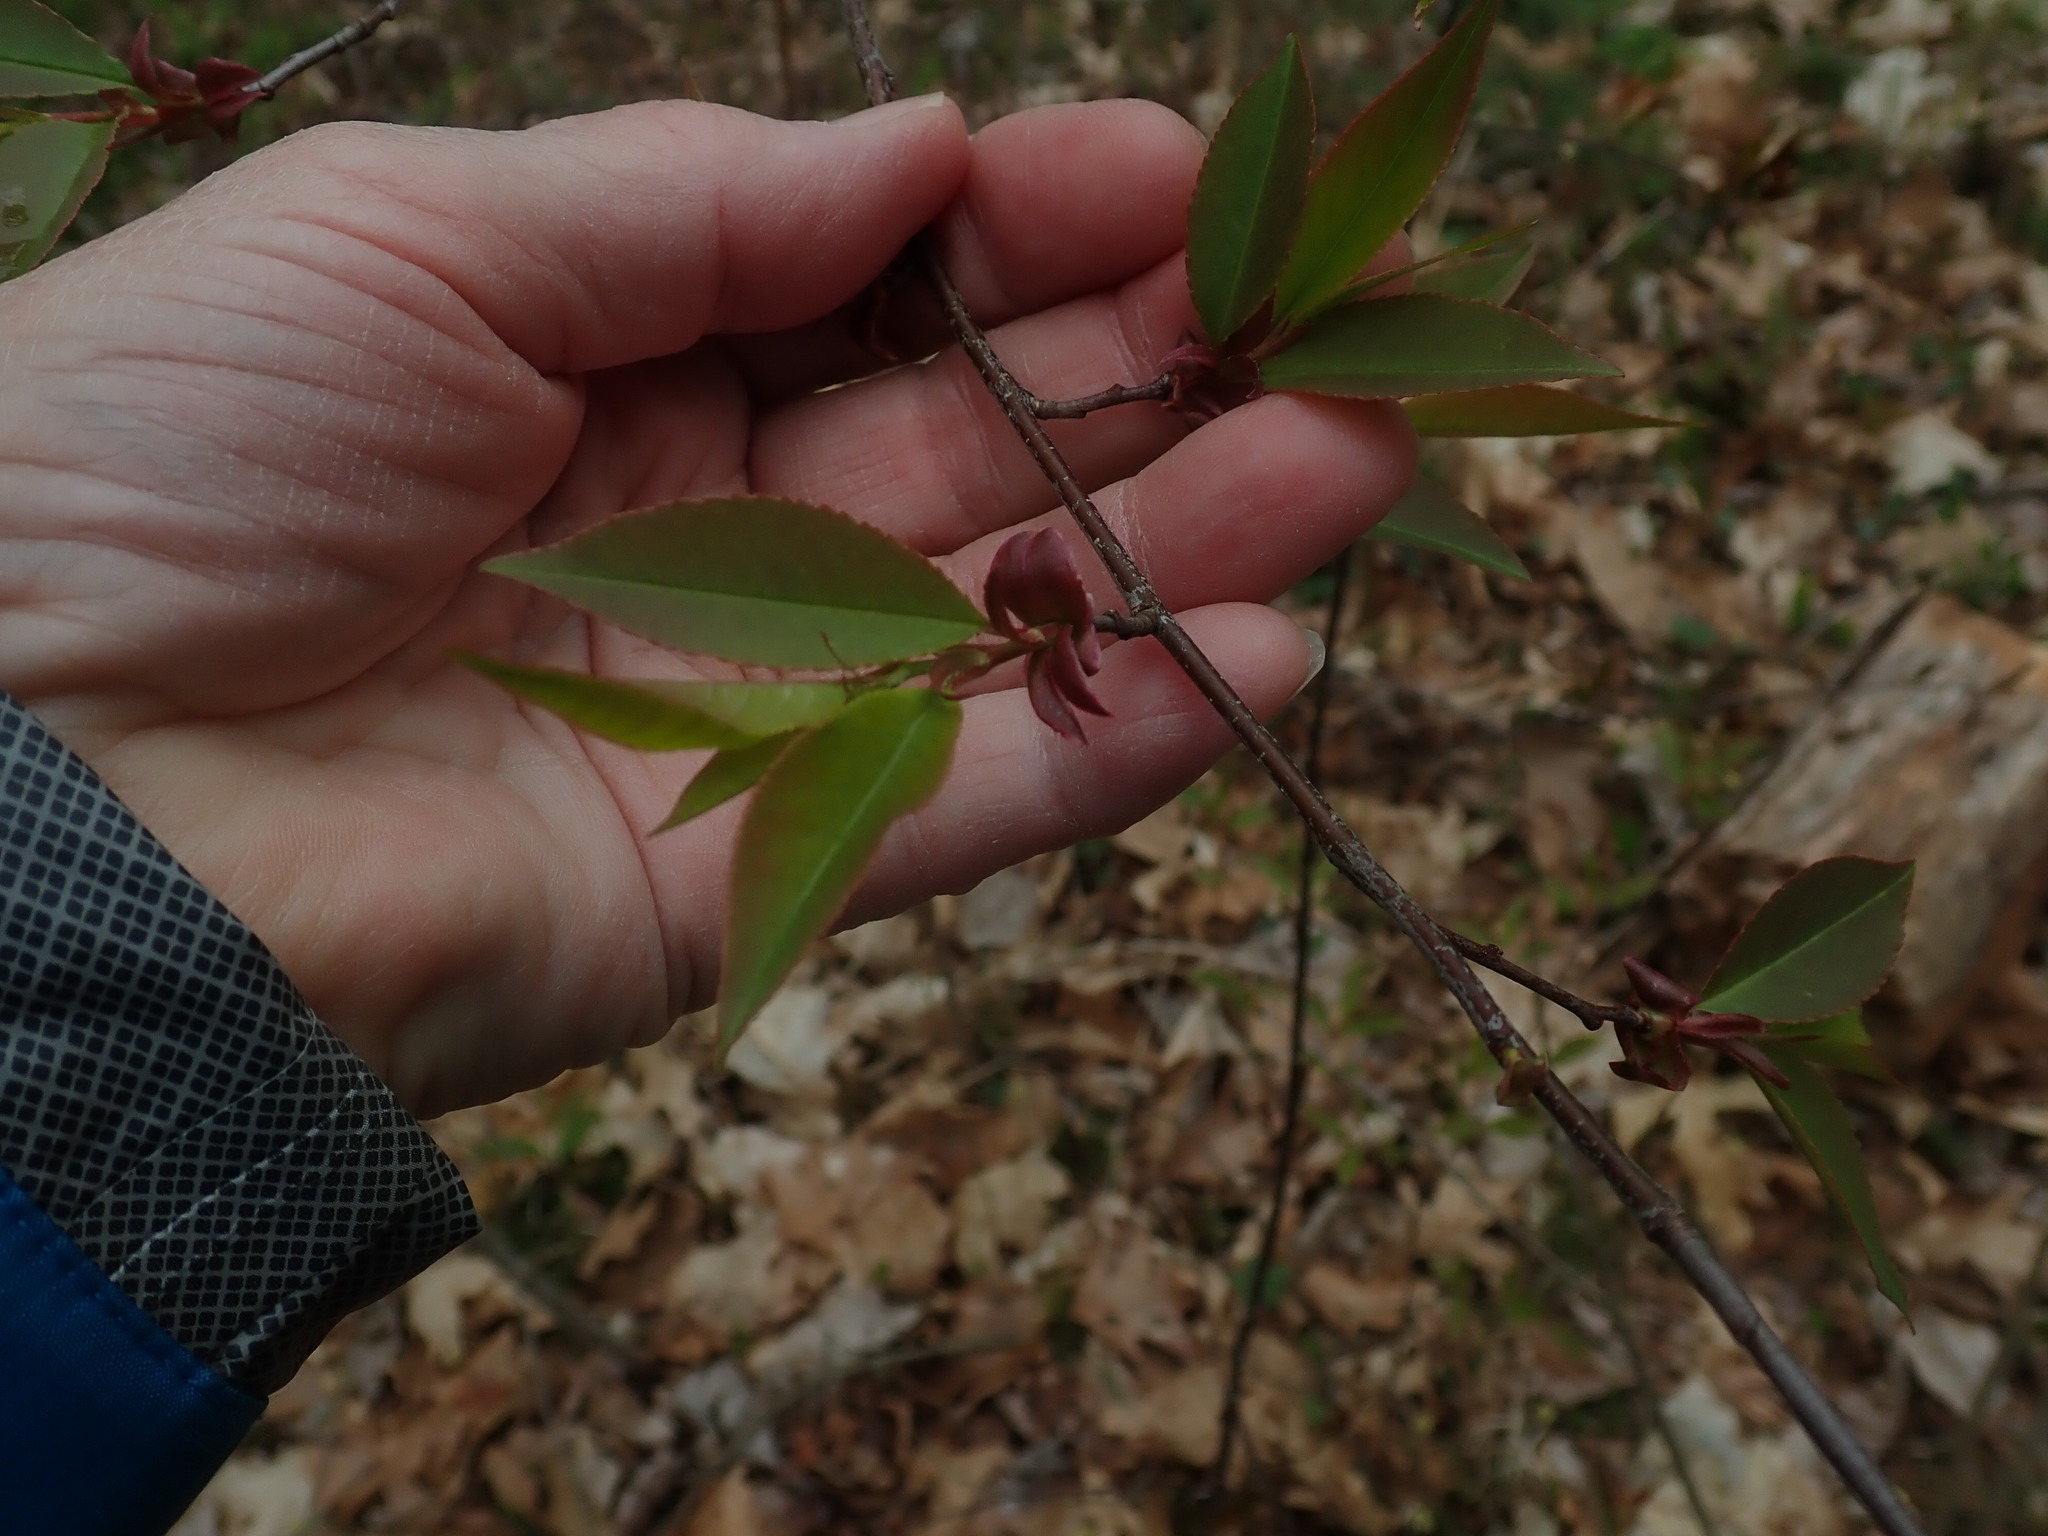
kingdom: Animalia
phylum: Arthropoda
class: Insecta
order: Lepidoptera
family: Gracillariidae
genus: Marmara
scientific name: Marmara serotinella
